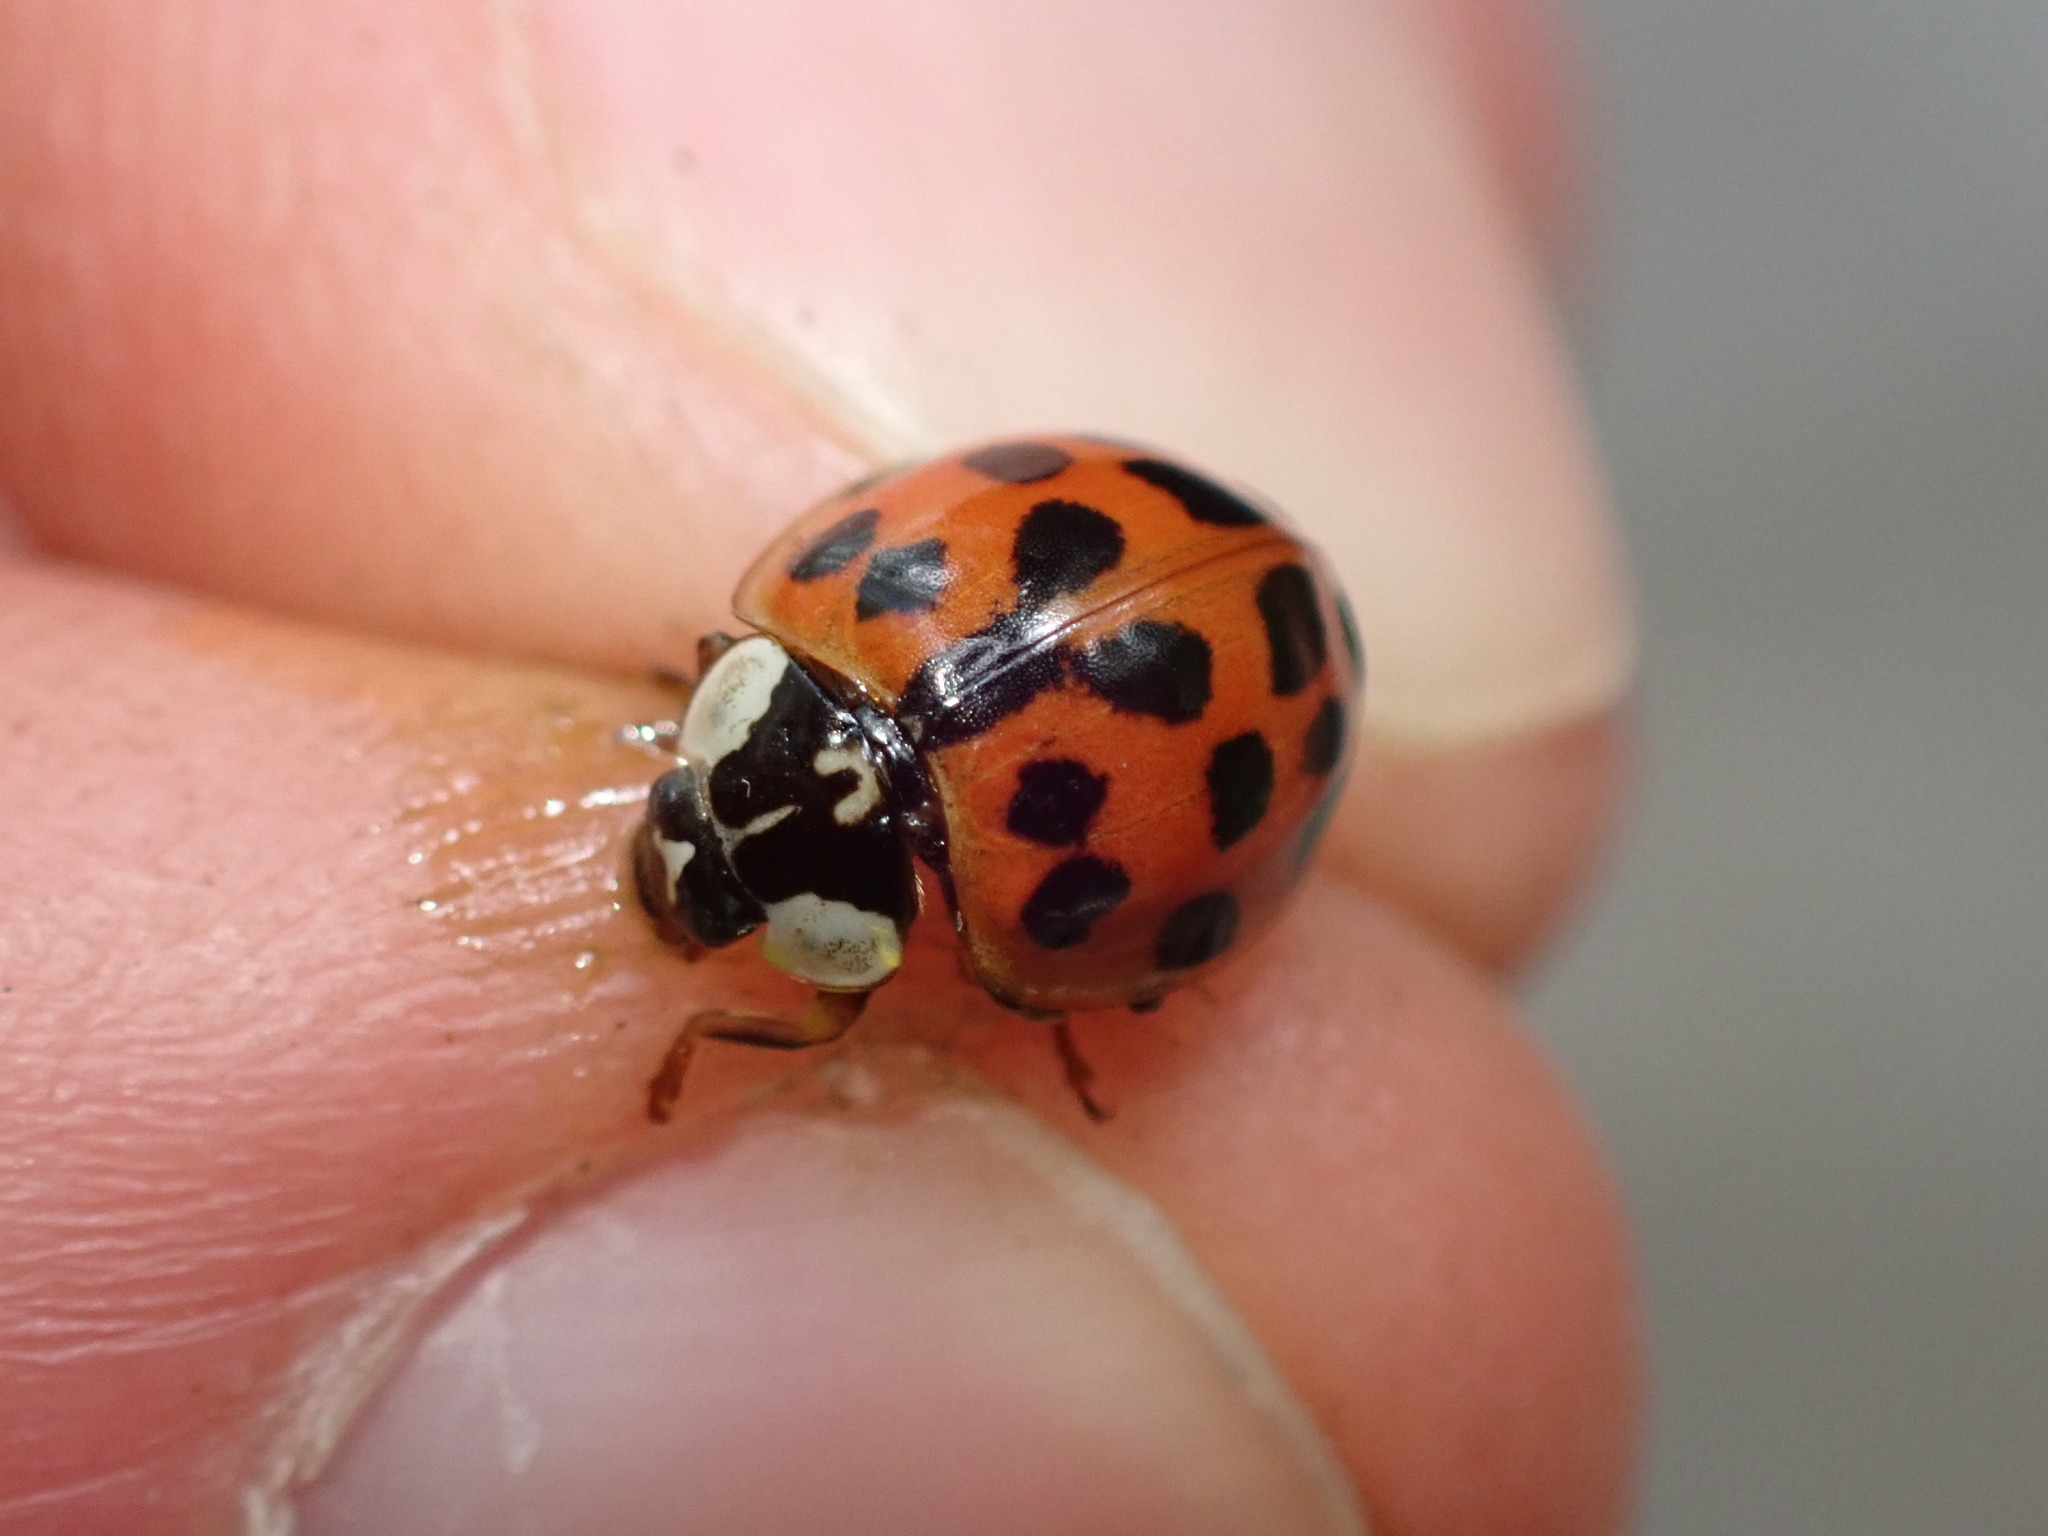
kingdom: Animalia
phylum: Arthropoda
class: Insecta
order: Coleoptera
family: Coccinellidae
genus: Harmonia
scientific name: Harmonia axyridis
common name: Harlequin ladybird
